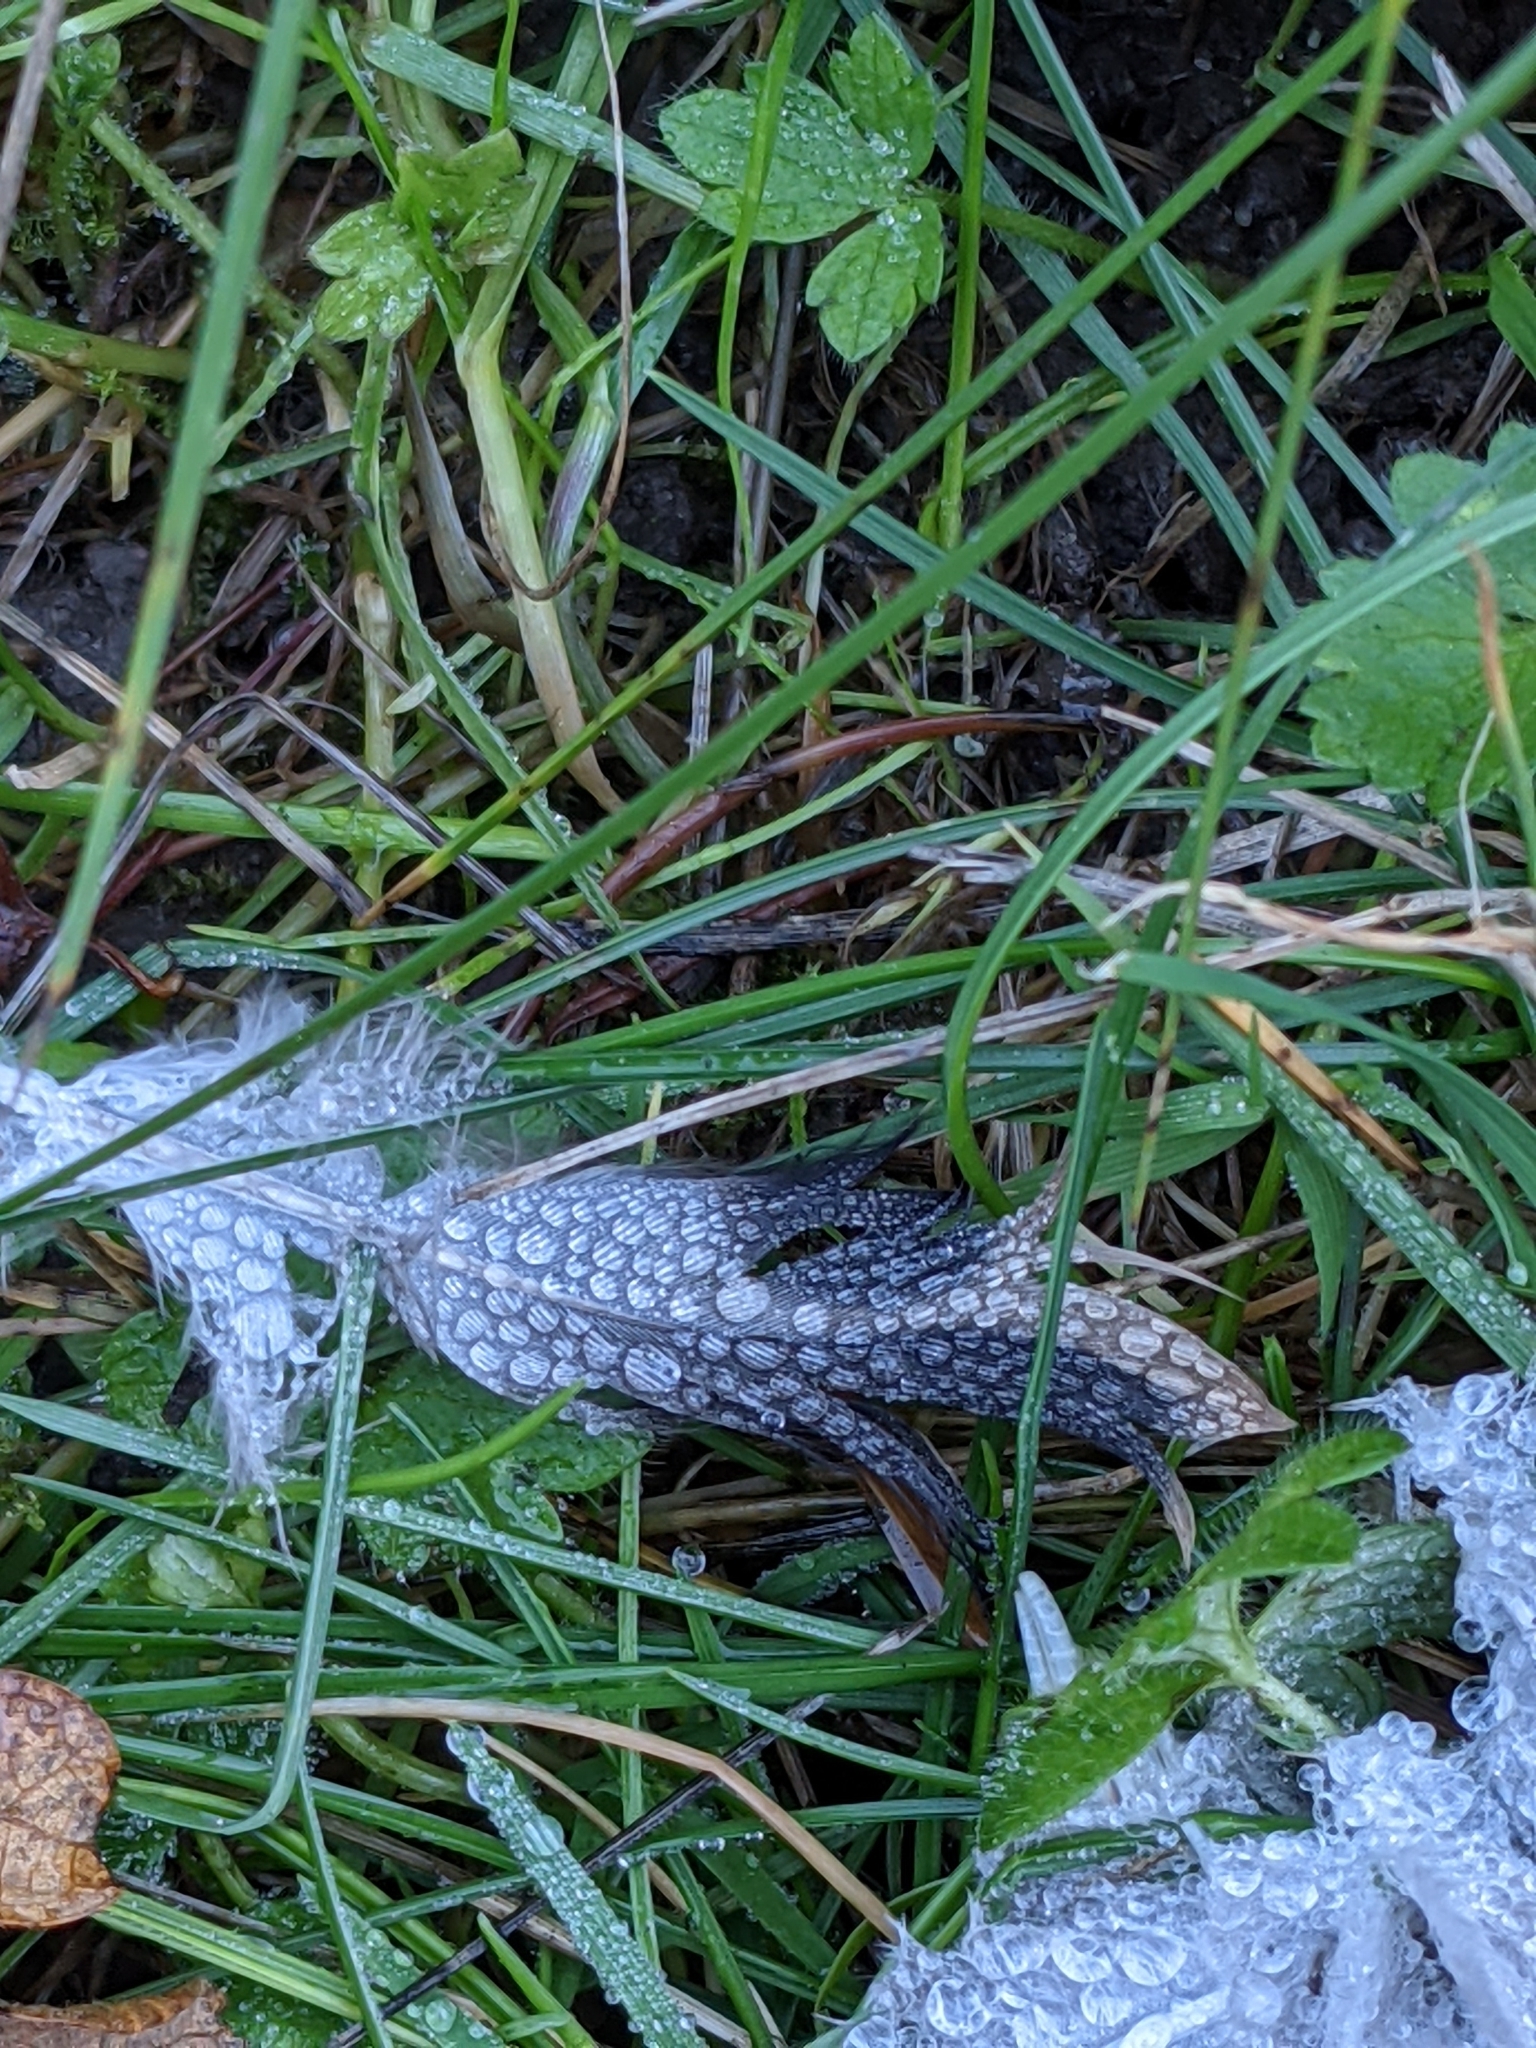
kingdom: Animalia
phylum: Chordata
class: Aves
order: Columbiformes
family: Columbidae
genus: Zenaida
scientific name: Zenaida macroura
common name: Mourning dove
